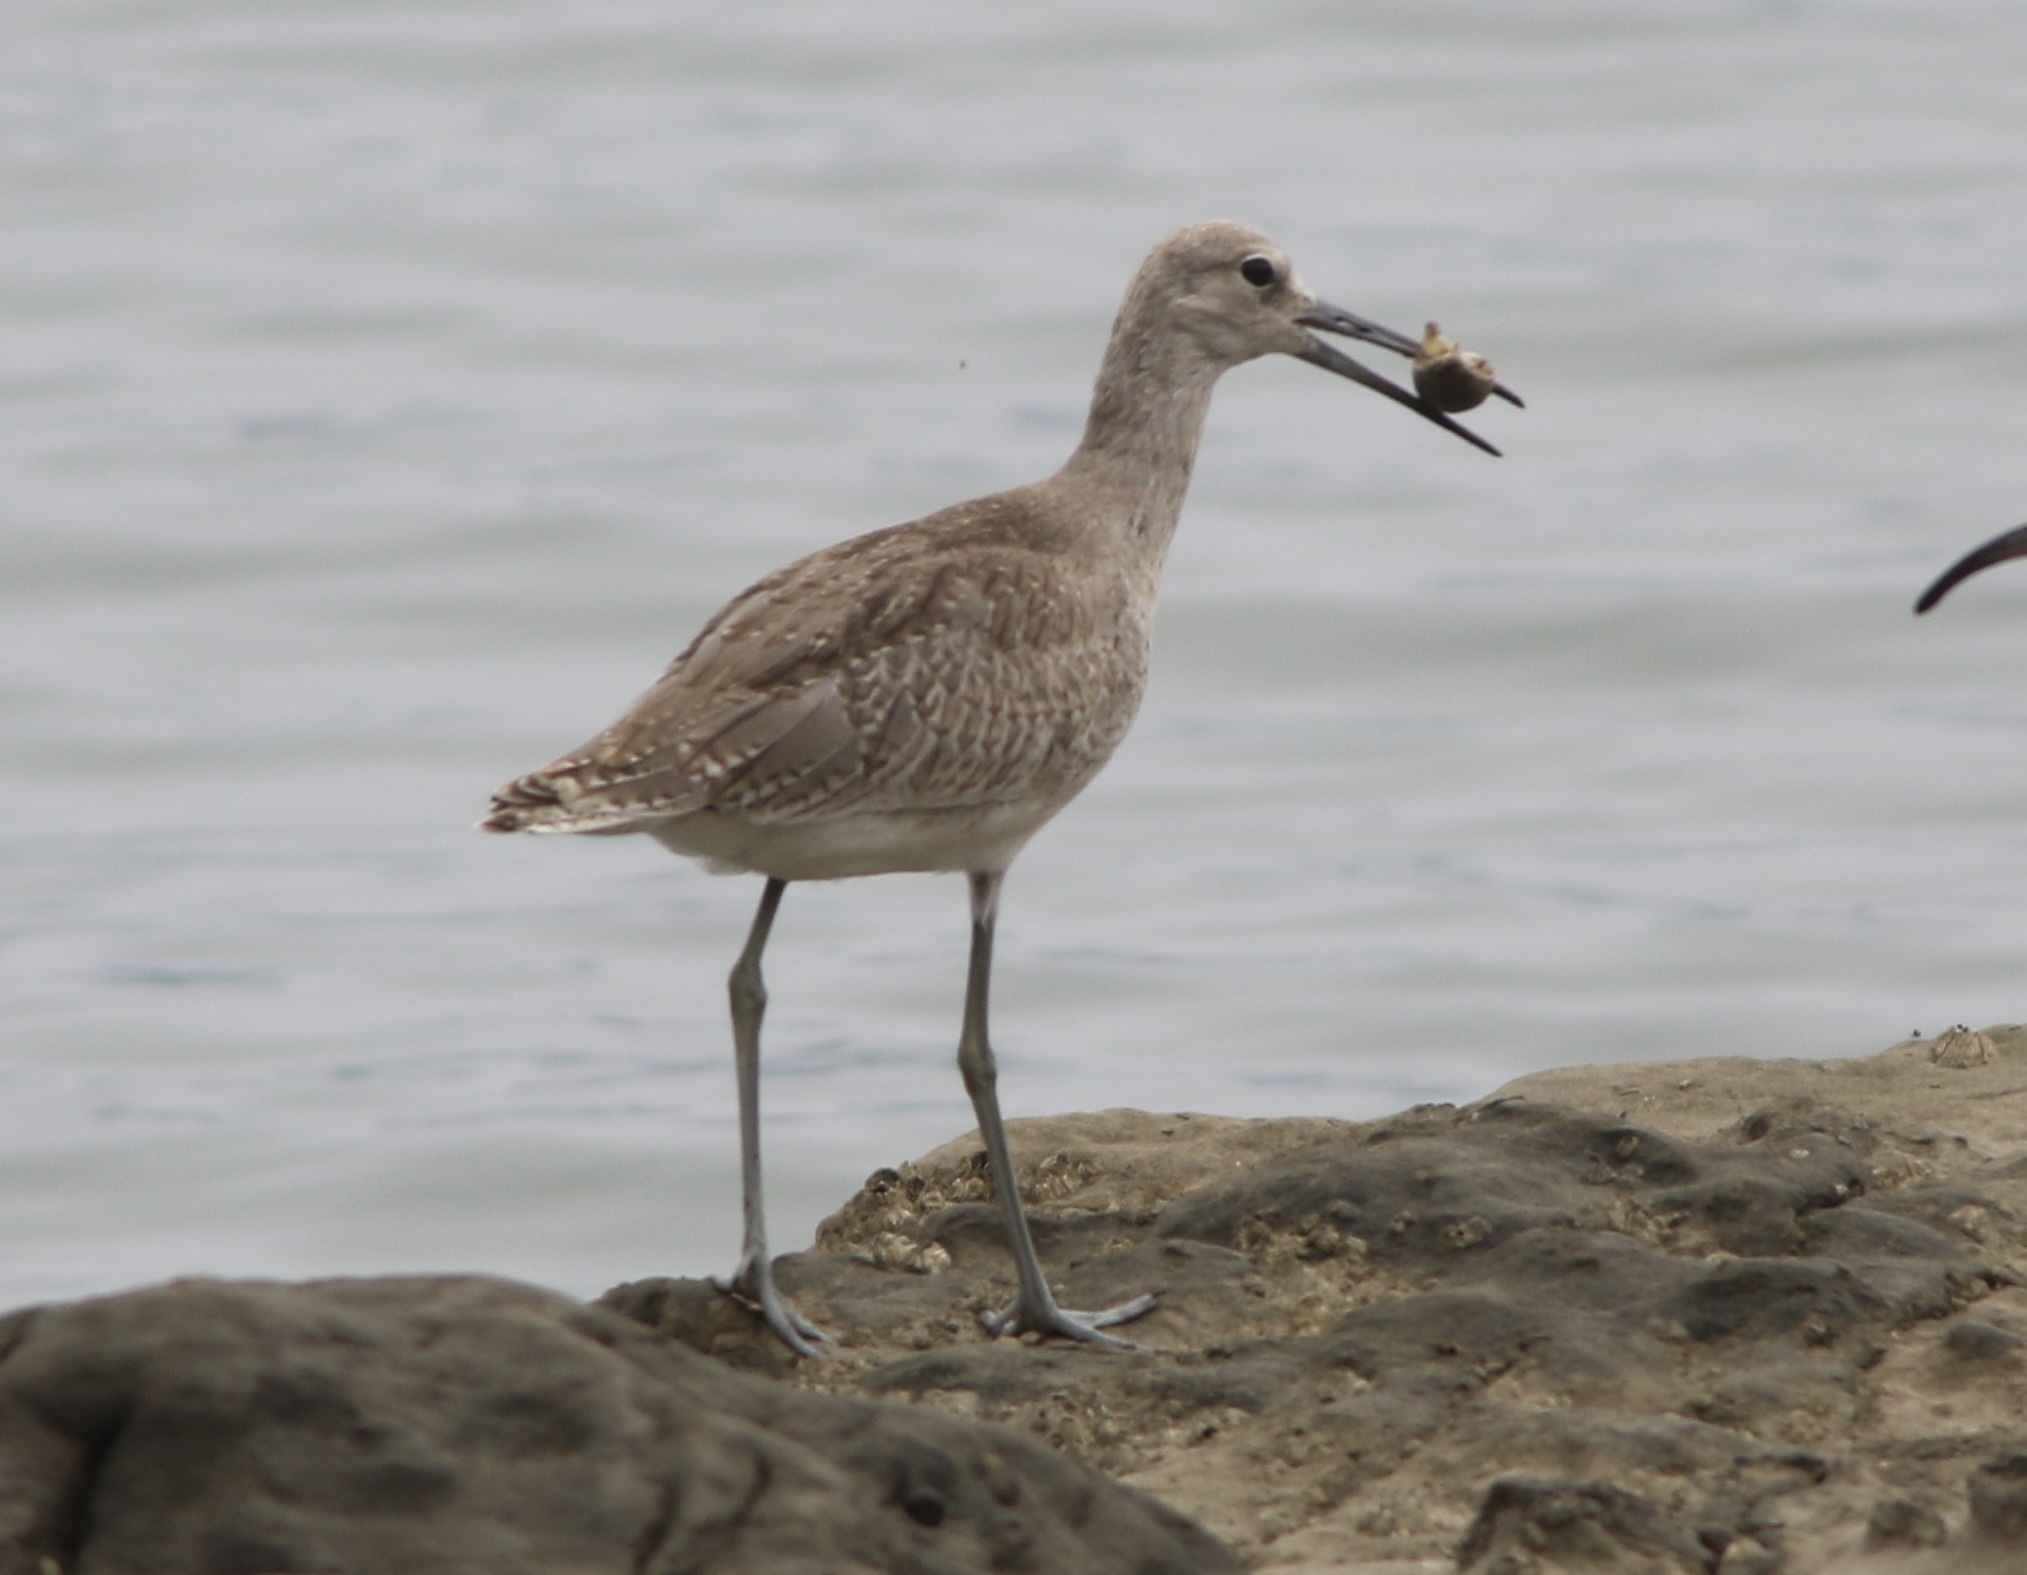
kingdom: Animalia
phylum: Chordata
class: Aves
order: Charadriiformes
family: Scolopacidae
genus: Tringa
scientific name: Tringa semipalmata
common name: Willet
